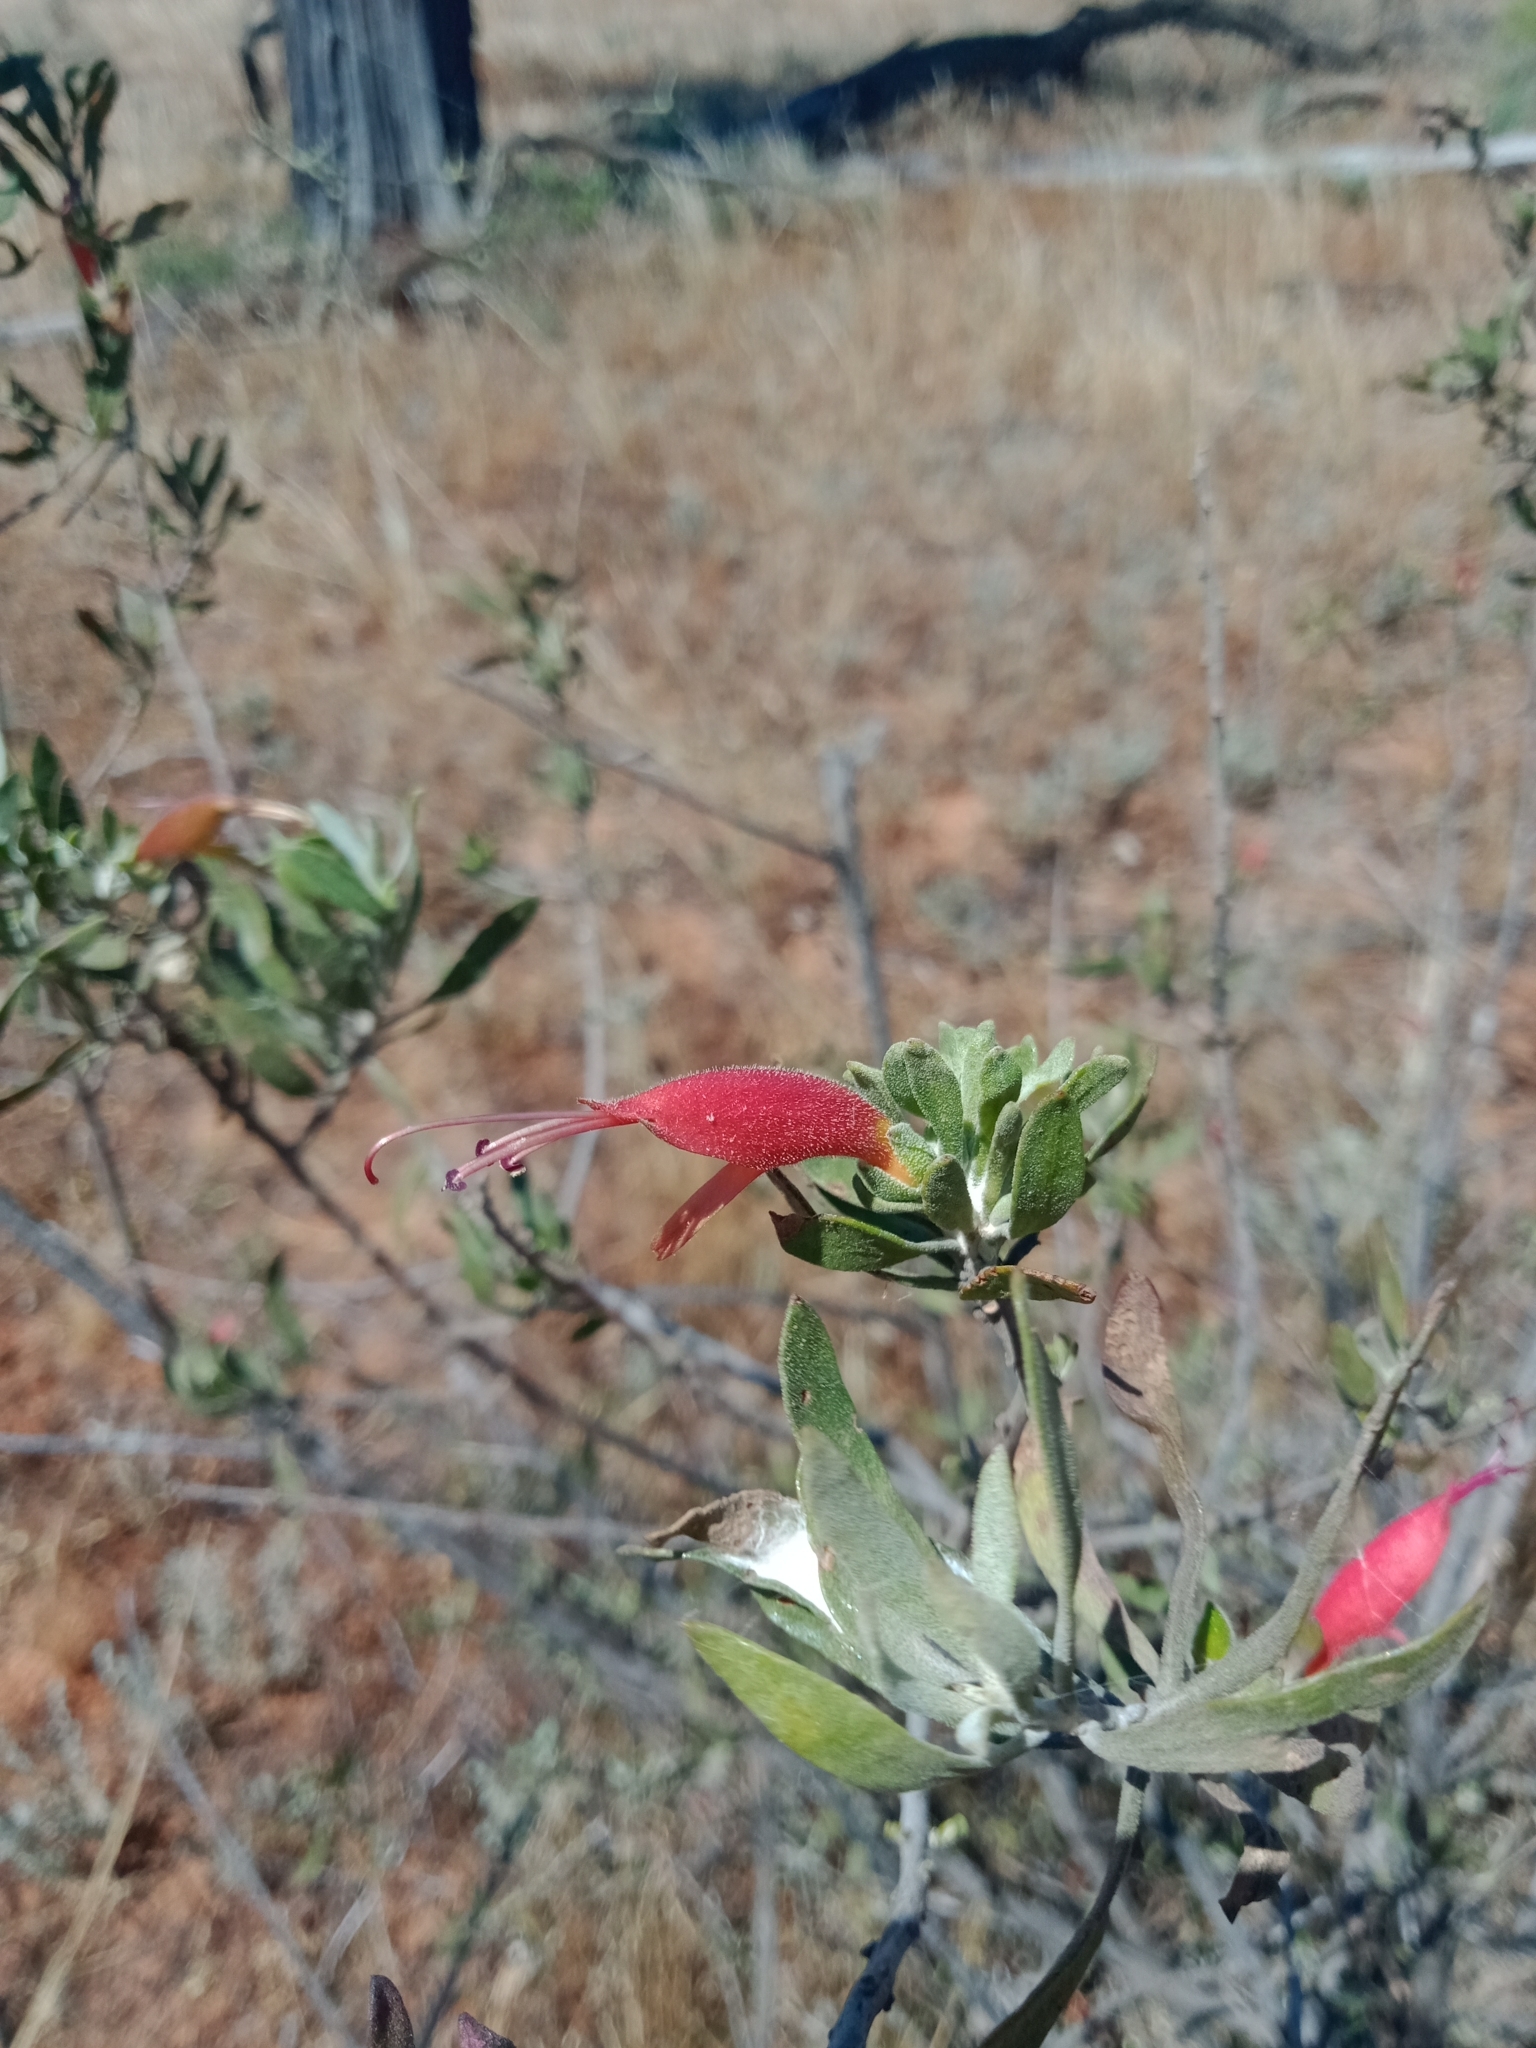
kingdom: Plantae
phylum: Tracheophyta
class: Magnoliopsida
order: Lamiales
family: Scrophulariaceae
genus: Eremophila
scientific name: Eremophila glabra
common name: Black-fuchsia
